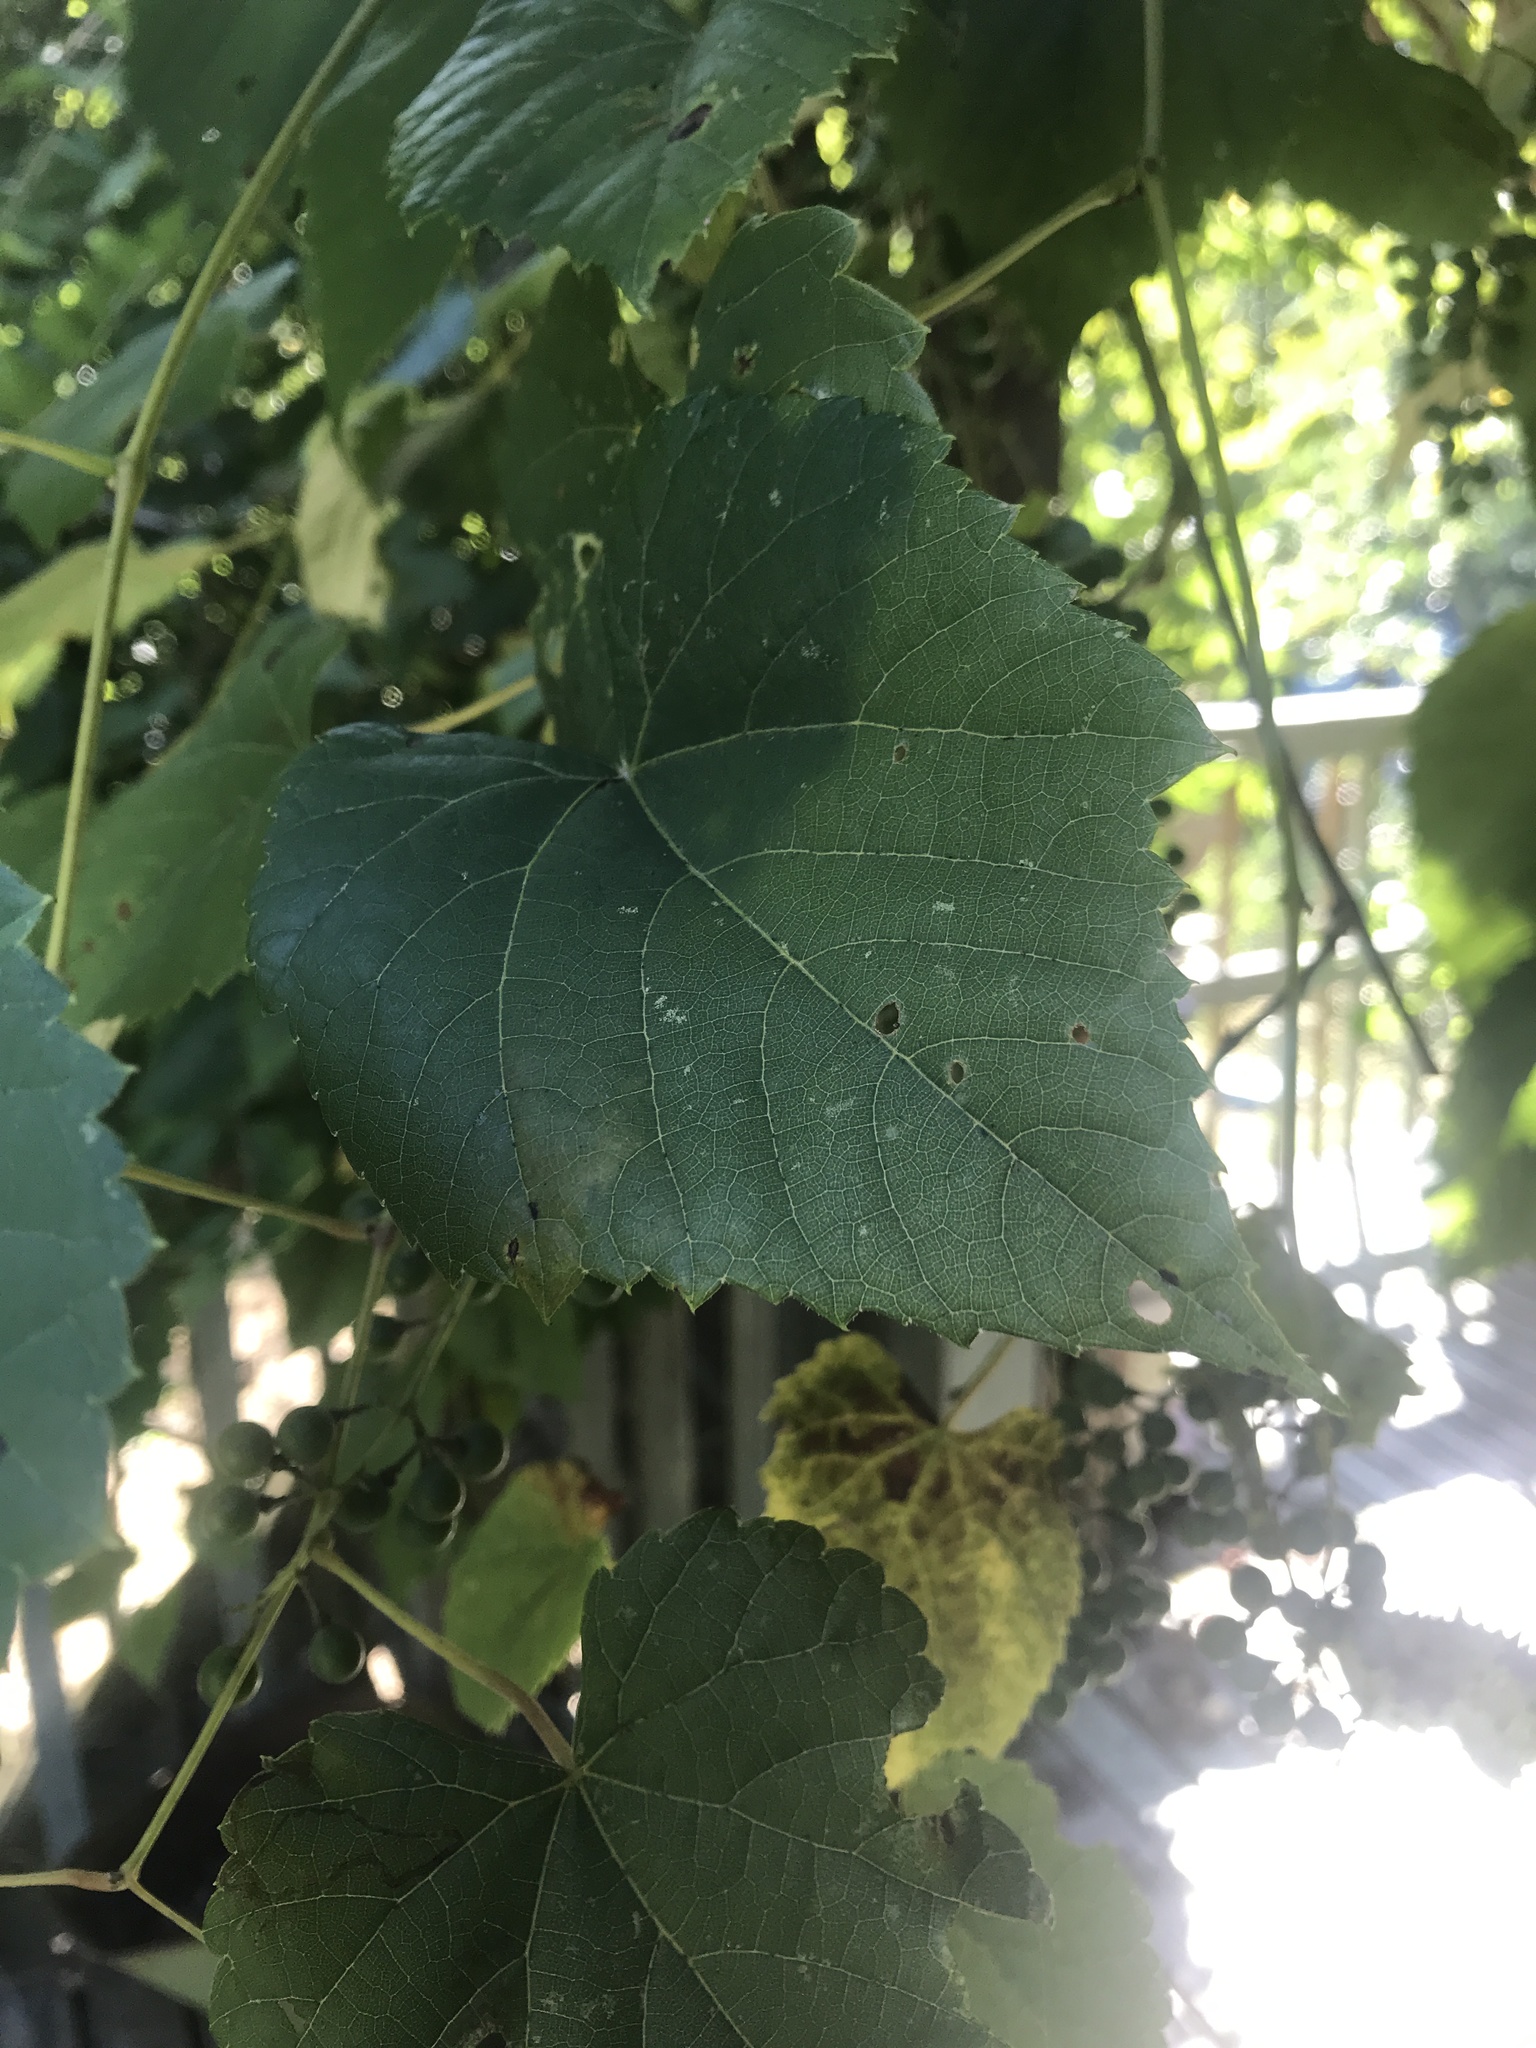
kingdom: Plantae
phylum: Tracheophyta
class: Magnoliopsida
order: Vitales
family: Vitaceae
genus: Vitis
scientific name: Vitis vulpina
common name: Frost grape
